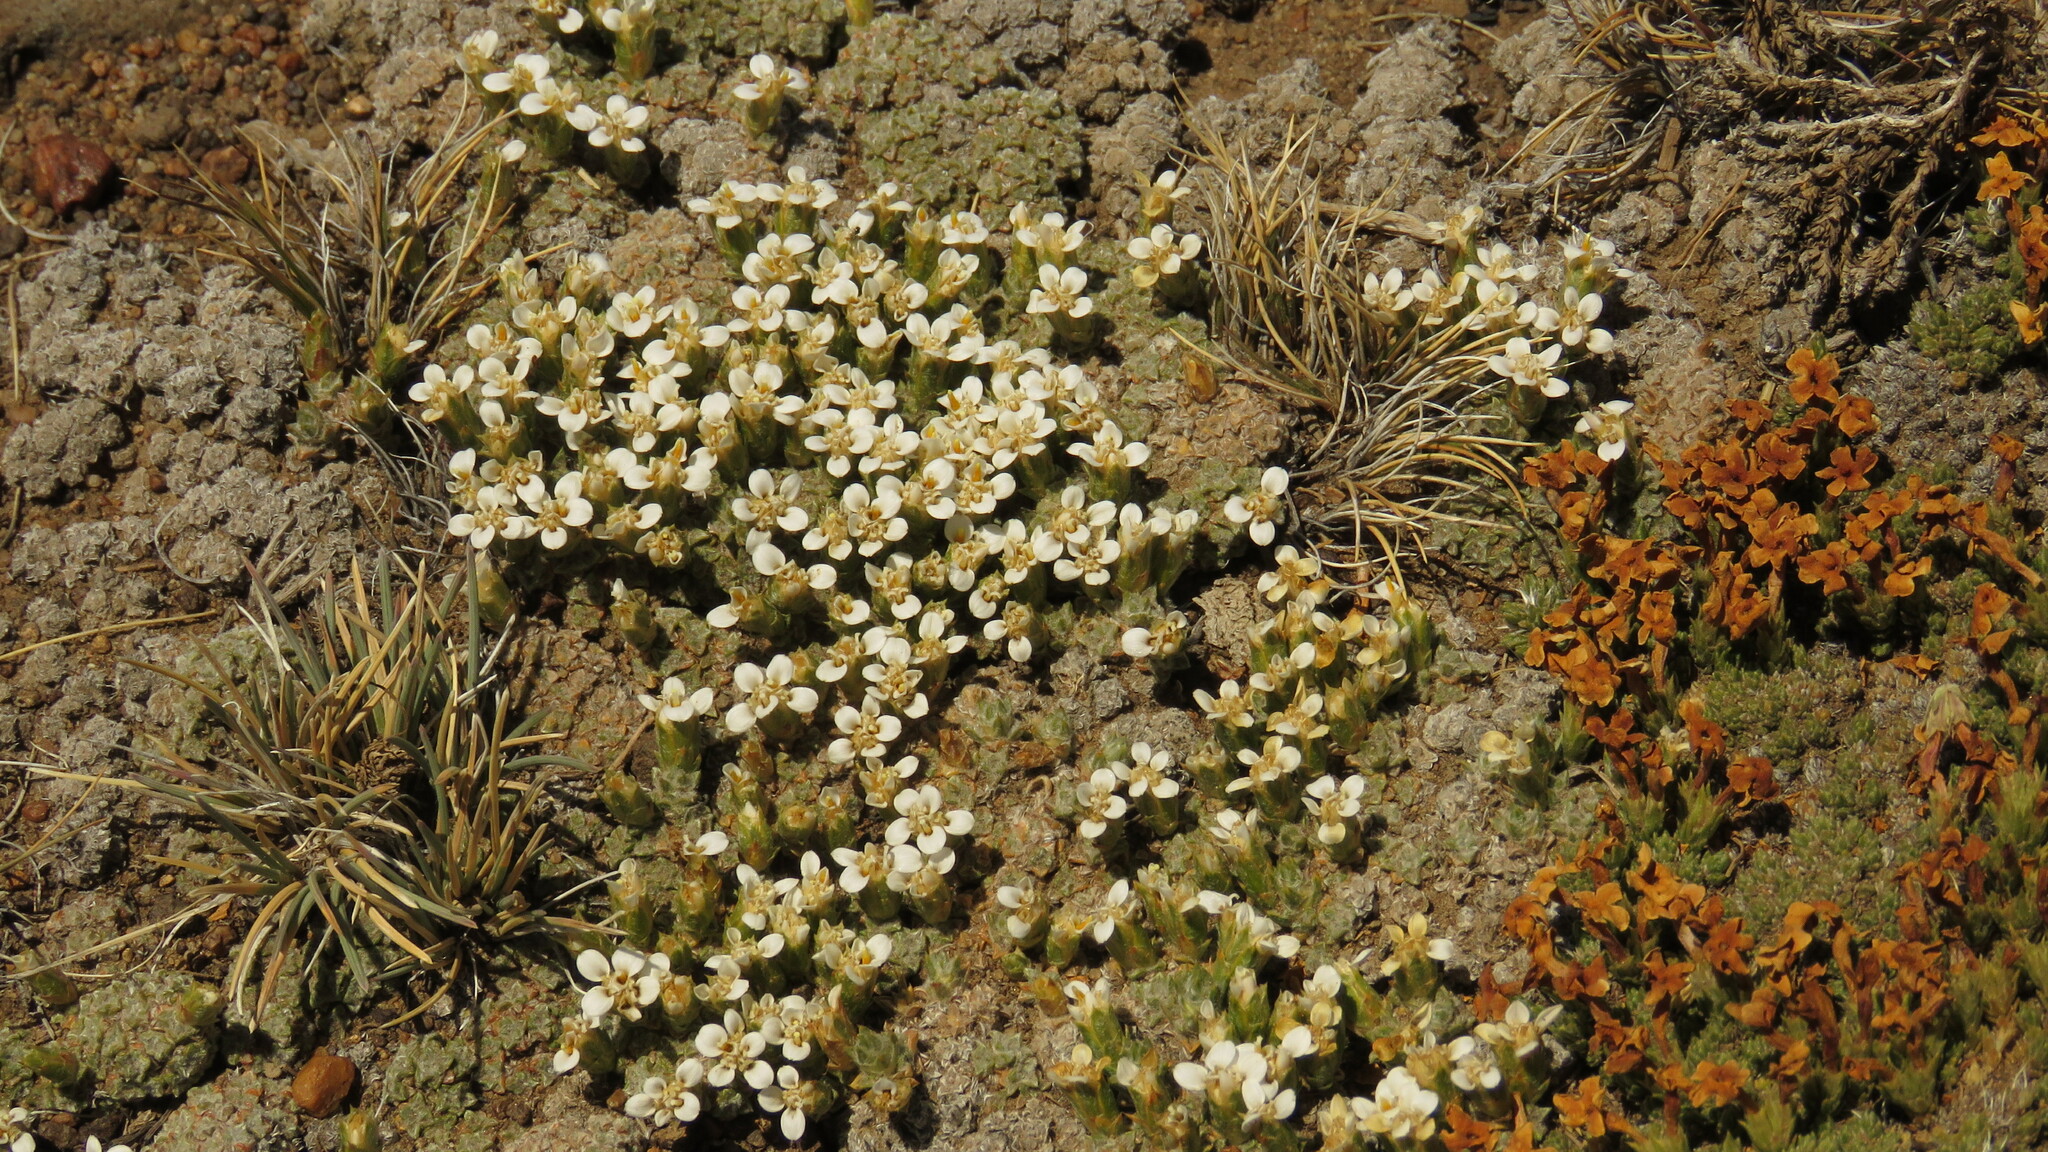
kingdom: Plantae
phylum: Tracheophyta
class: Magnoliopsida
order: Asterales
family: Asteraceae
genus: Nassauvia
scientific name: Nassauvia glomerulosa
